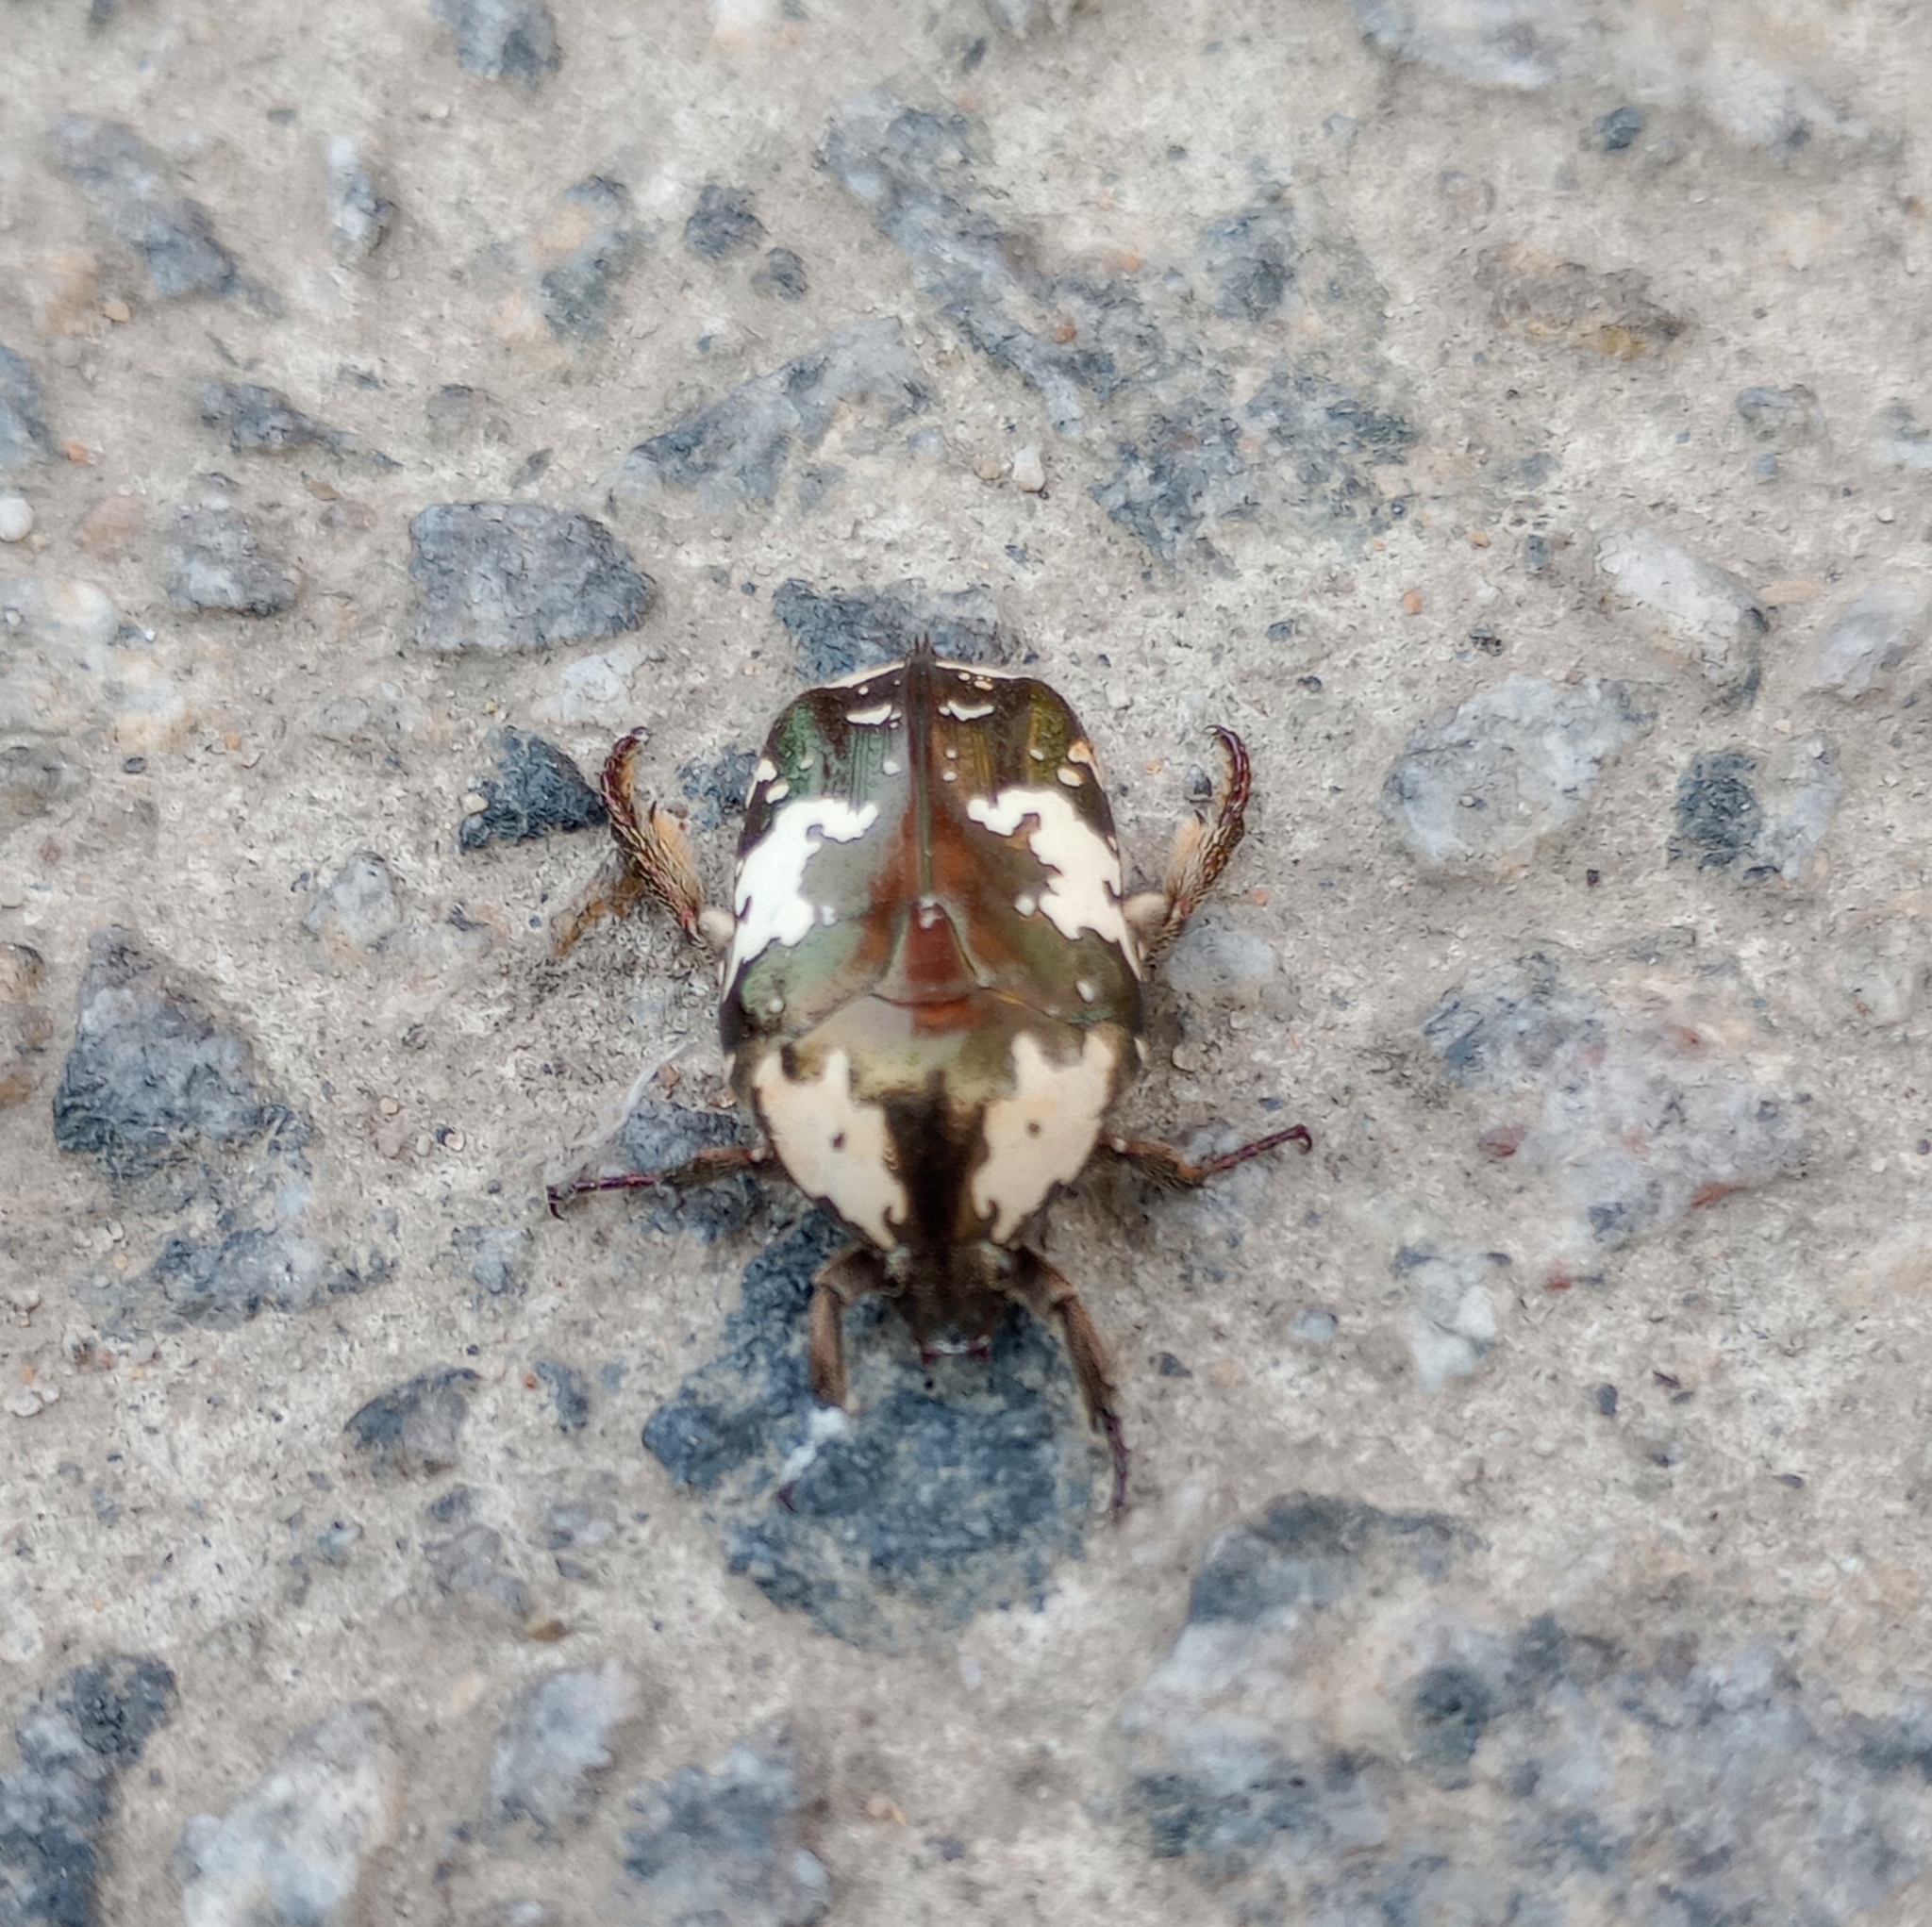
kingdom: Animalia
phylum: Arthropoda
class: Insecta
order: Coleoptera
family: Scarabaeidae
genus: Protaetia
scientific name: Protaetia aurichalcea
